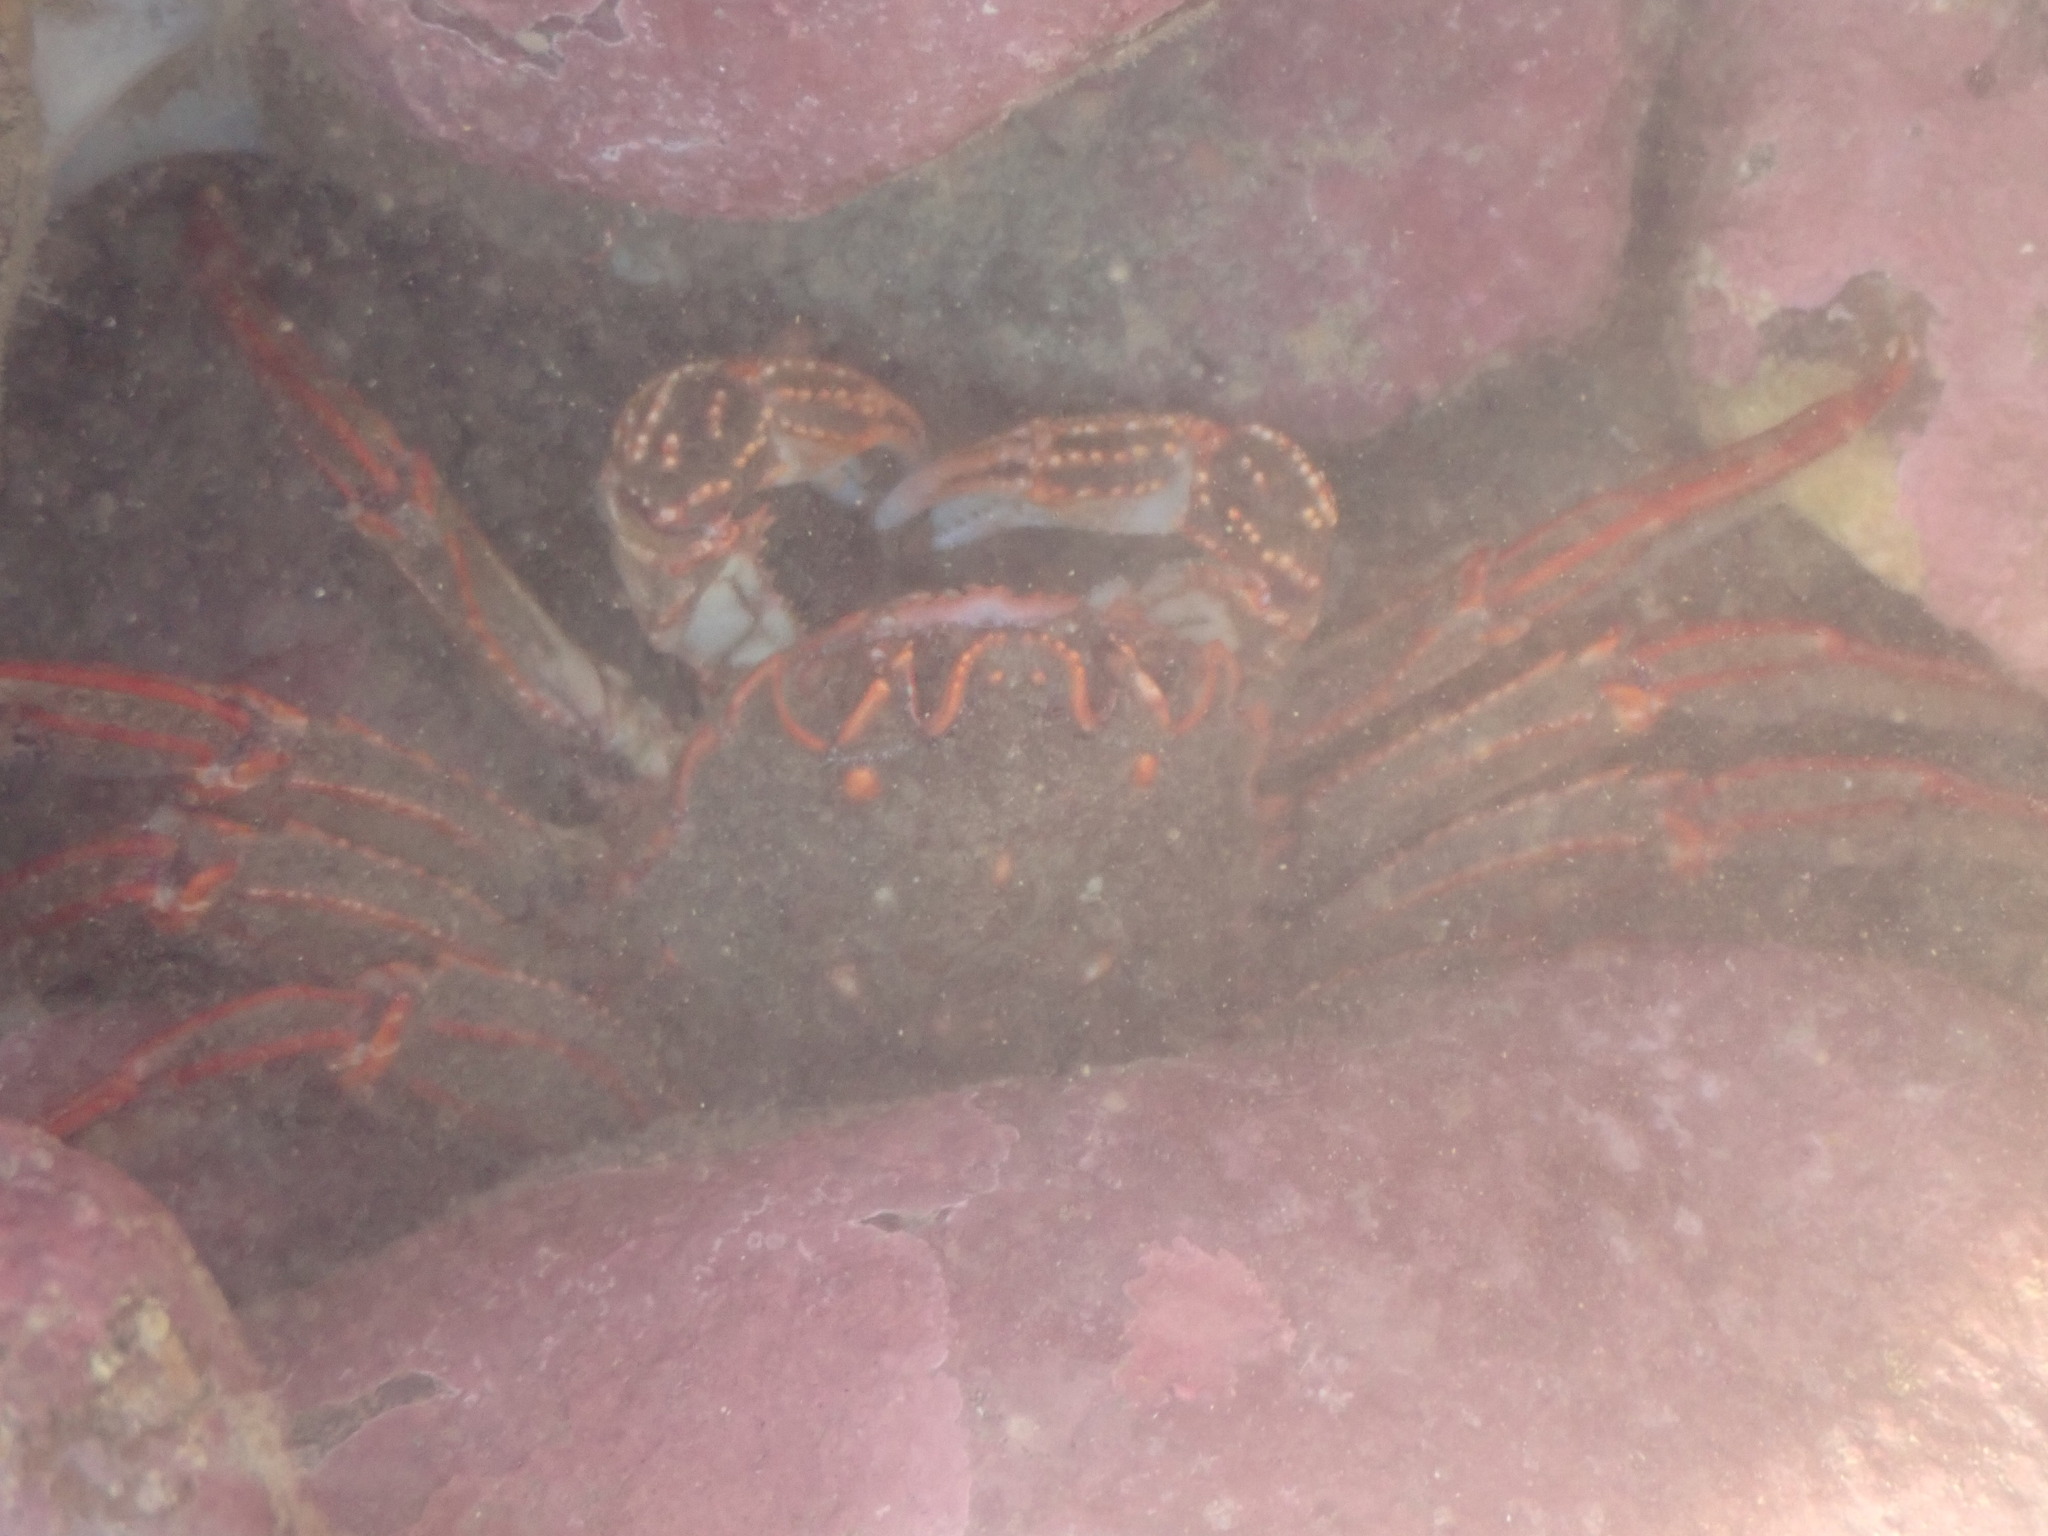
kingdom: Animalia
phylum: Arthropoda
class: Malacostraca
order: Decapoda
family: Plagusiidae
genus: Guinusia
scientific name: Guinusia chabrus
